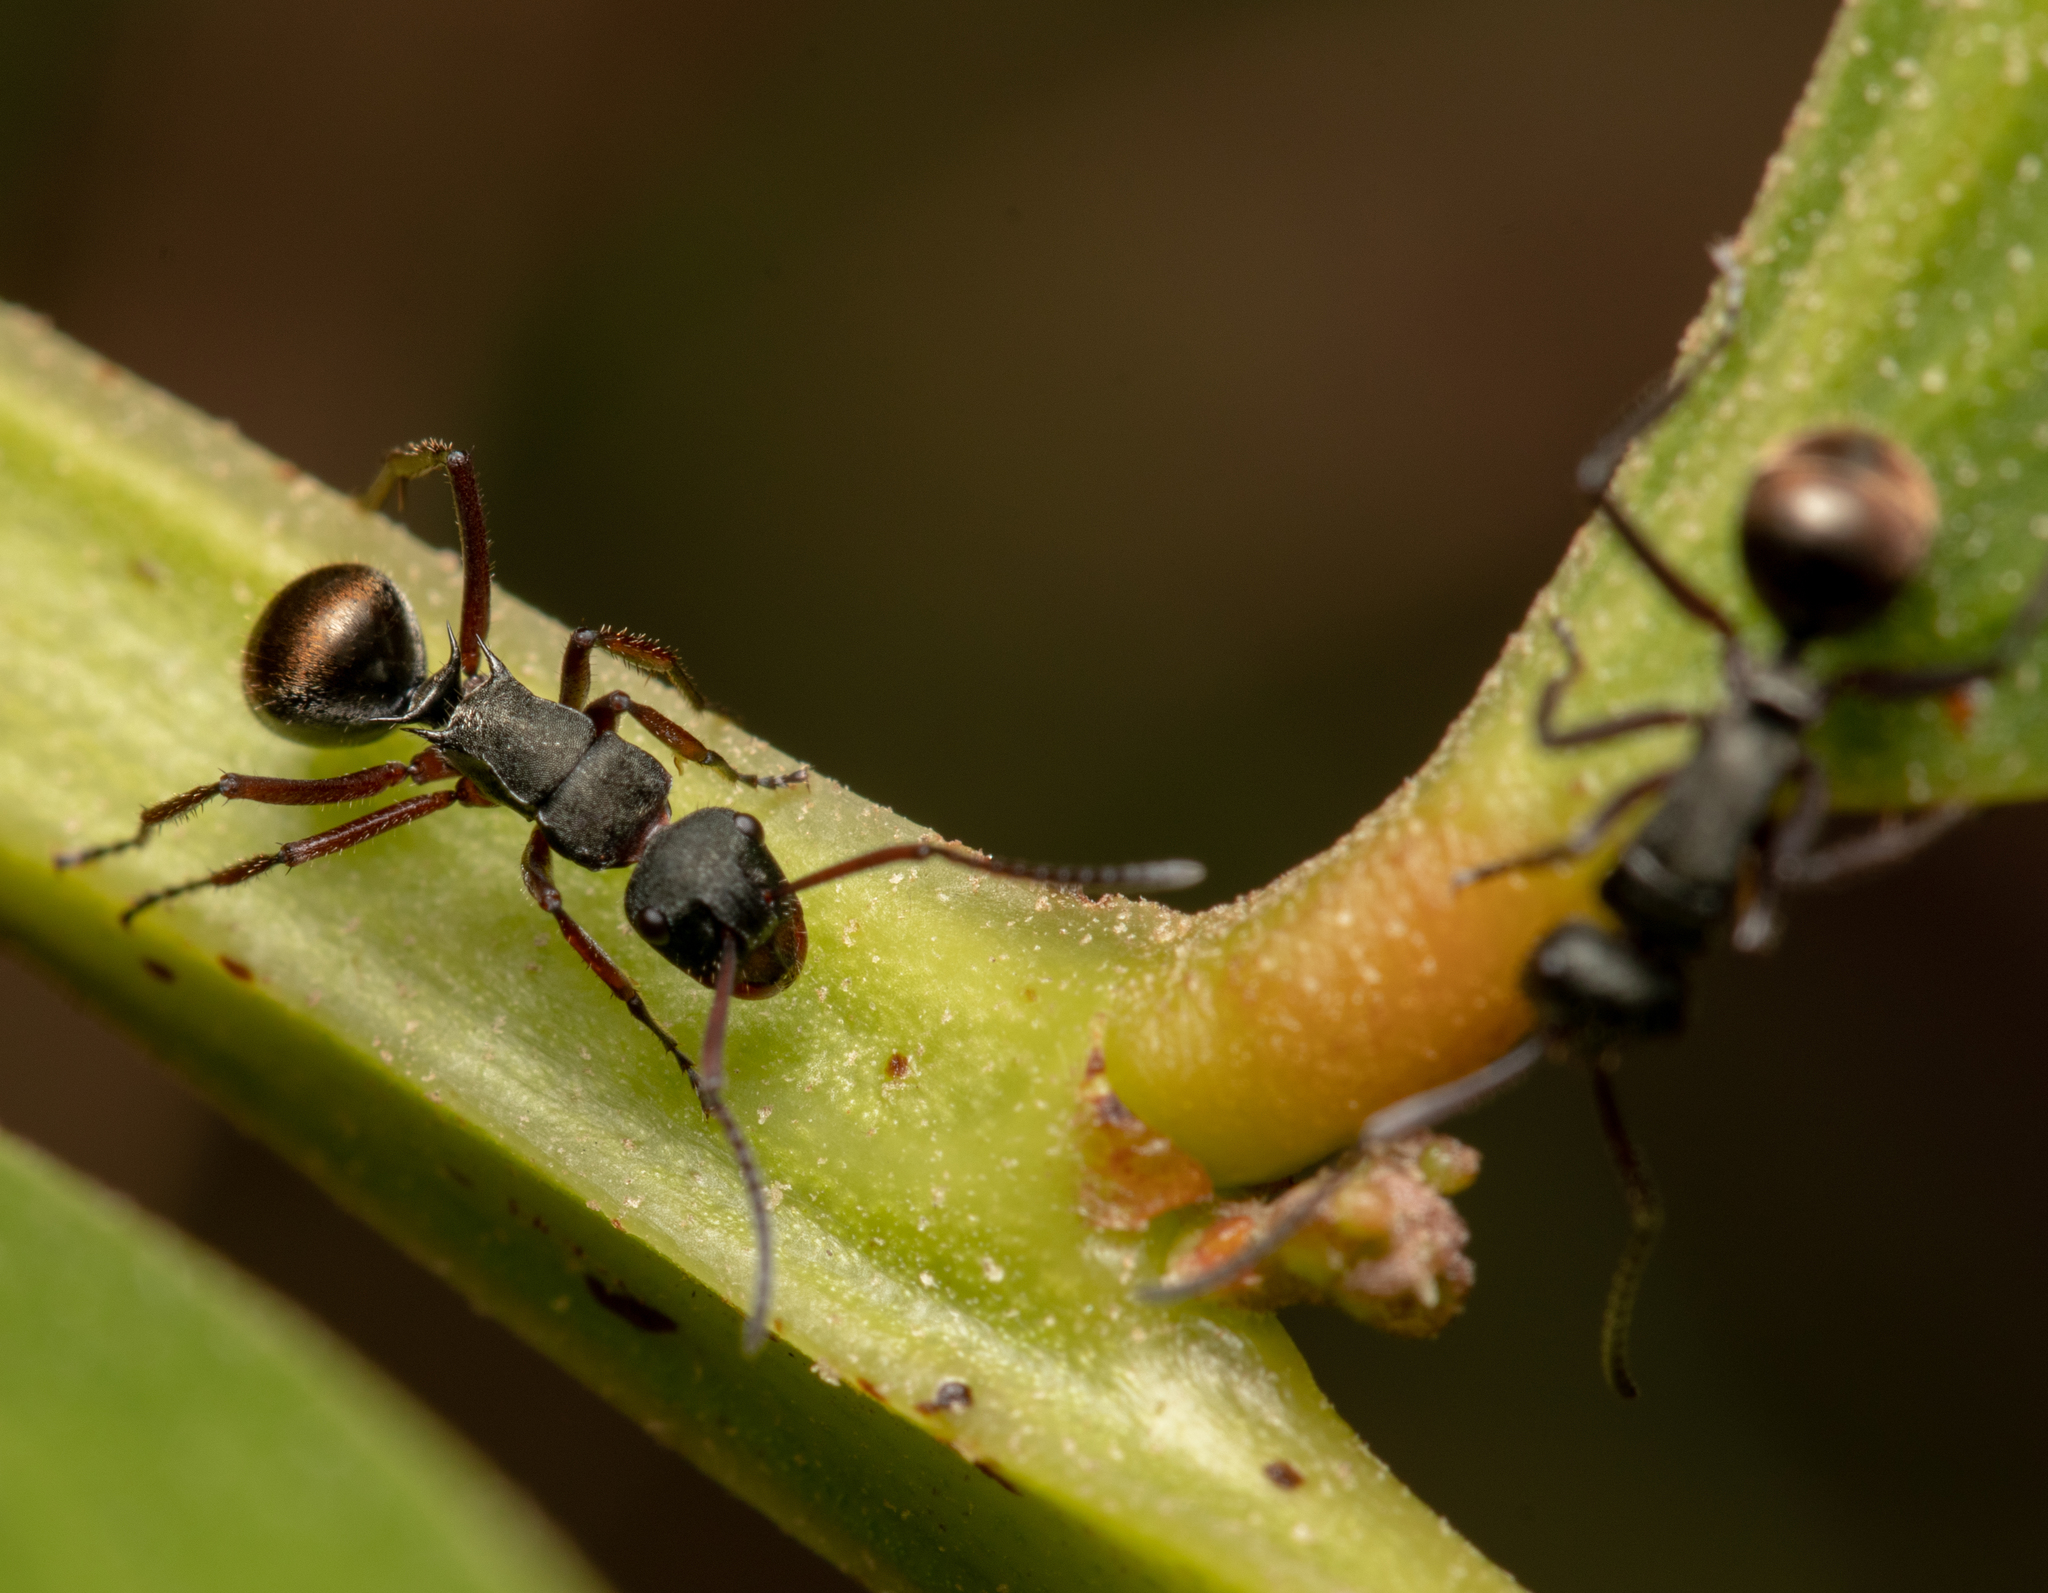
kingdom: Animalia
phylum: Arthropoda
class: Insecta
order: Hymenoptera
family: Formicidae
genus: Polyrhachis
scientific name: Polyrhachis lydiae
